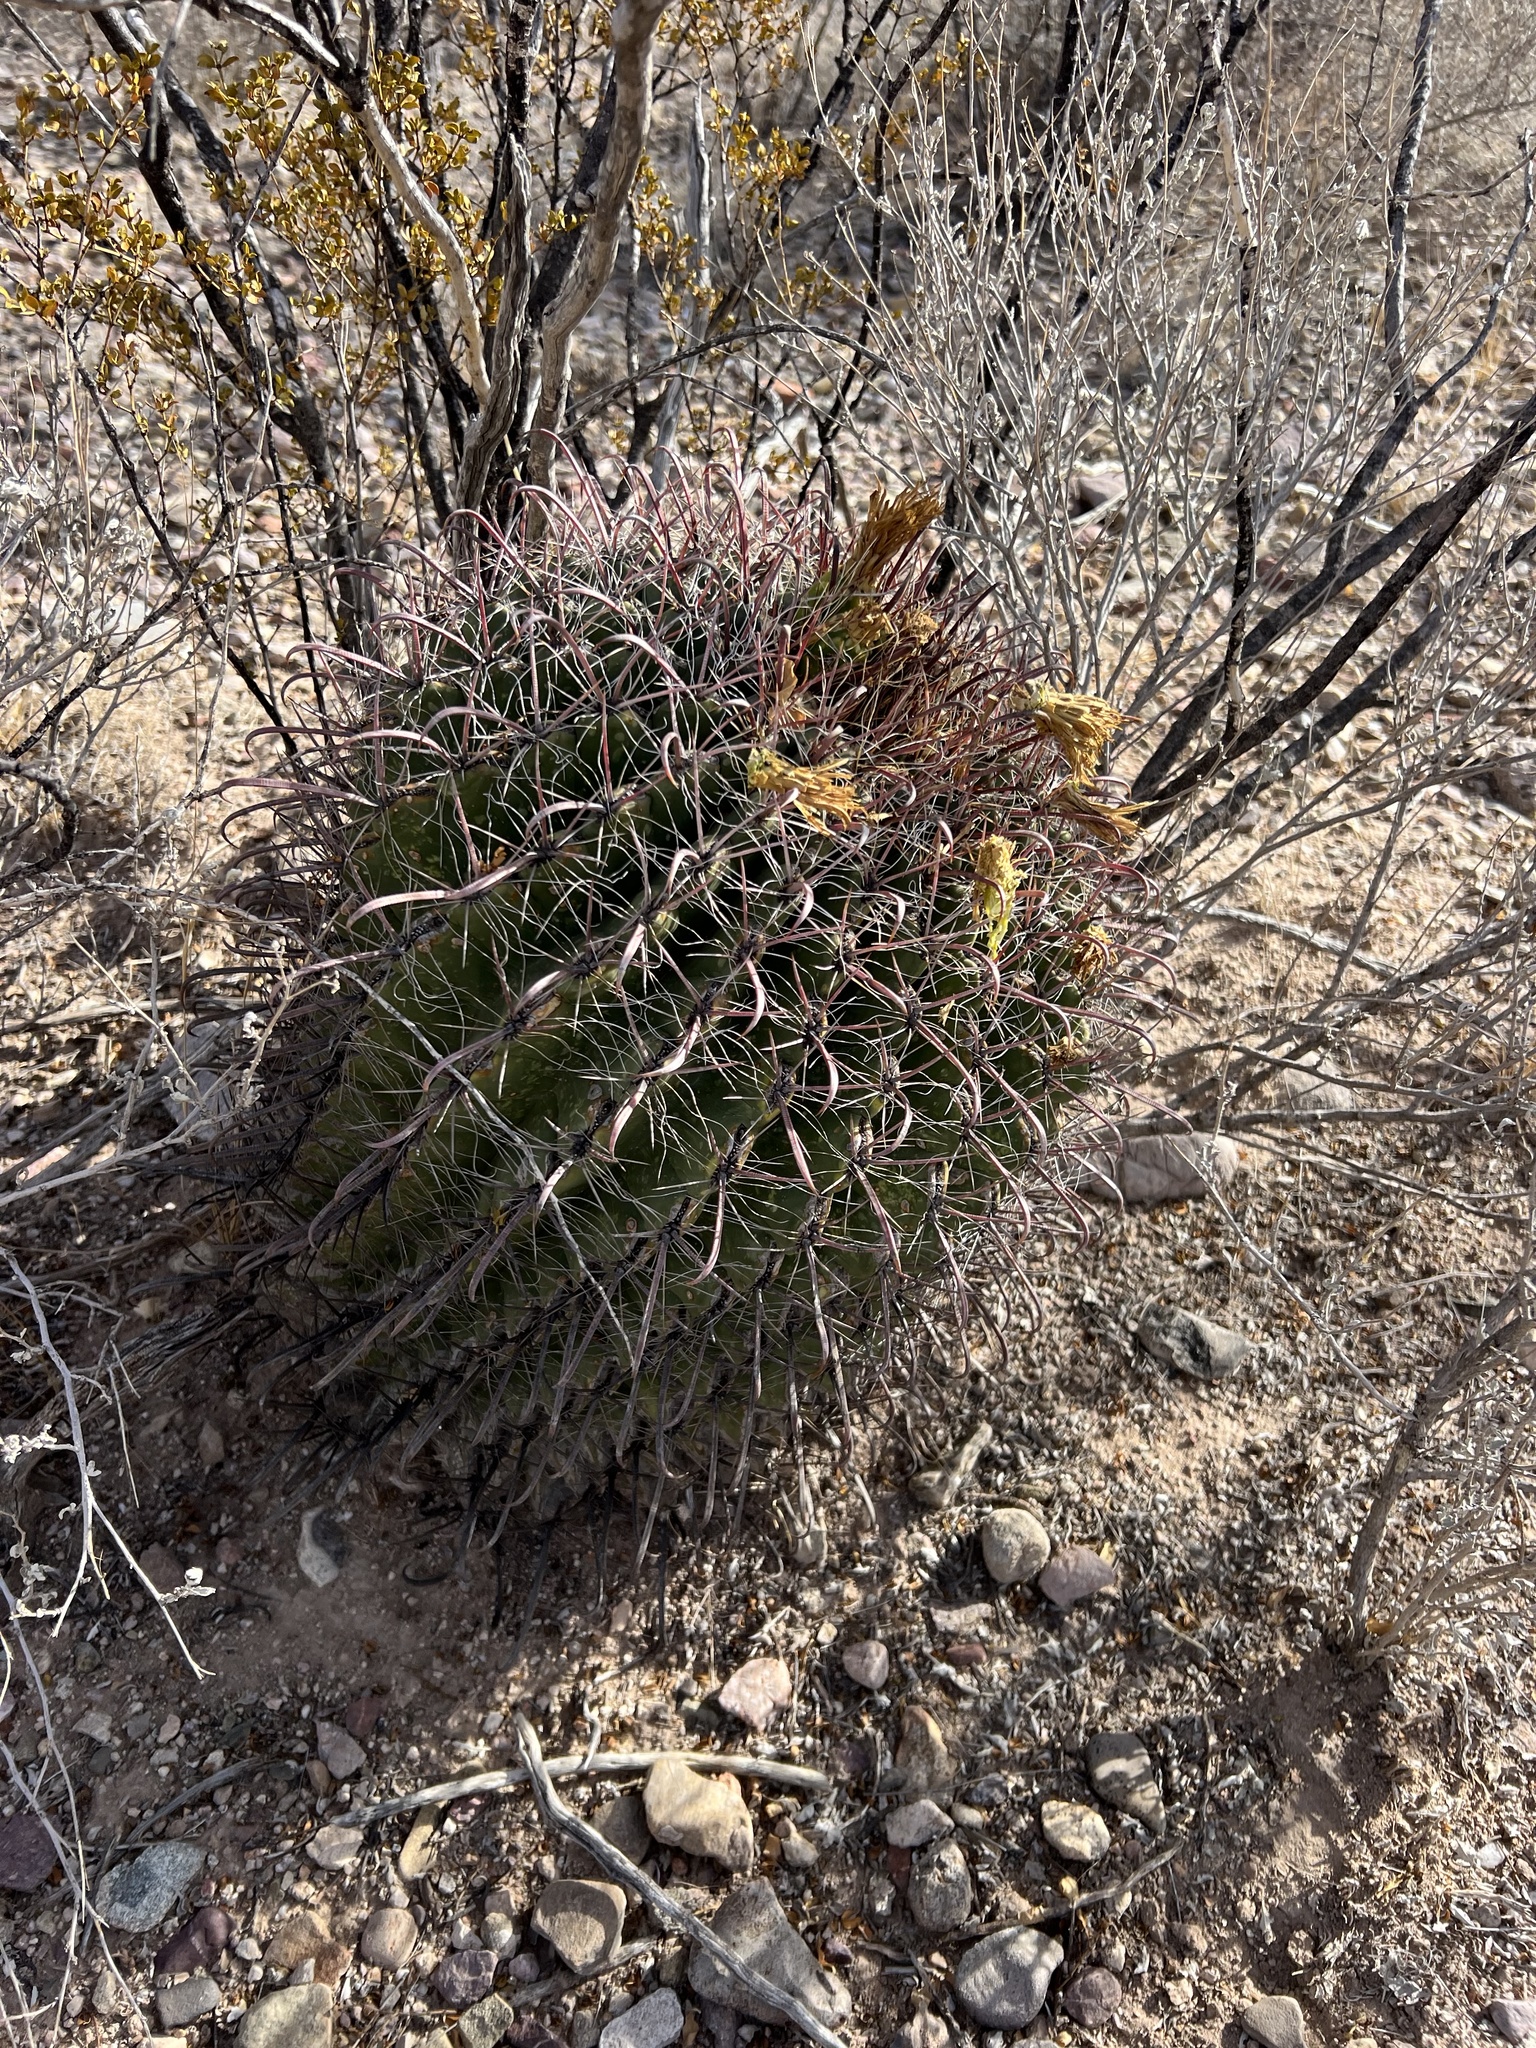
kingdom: Plantae
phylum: Tracheophyta
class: Magnoliopsida
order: Caryophyllales
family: Cactaceae
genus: Ferocactus
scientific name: Ferocactus wislizeni
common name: Candy barrel cactus
